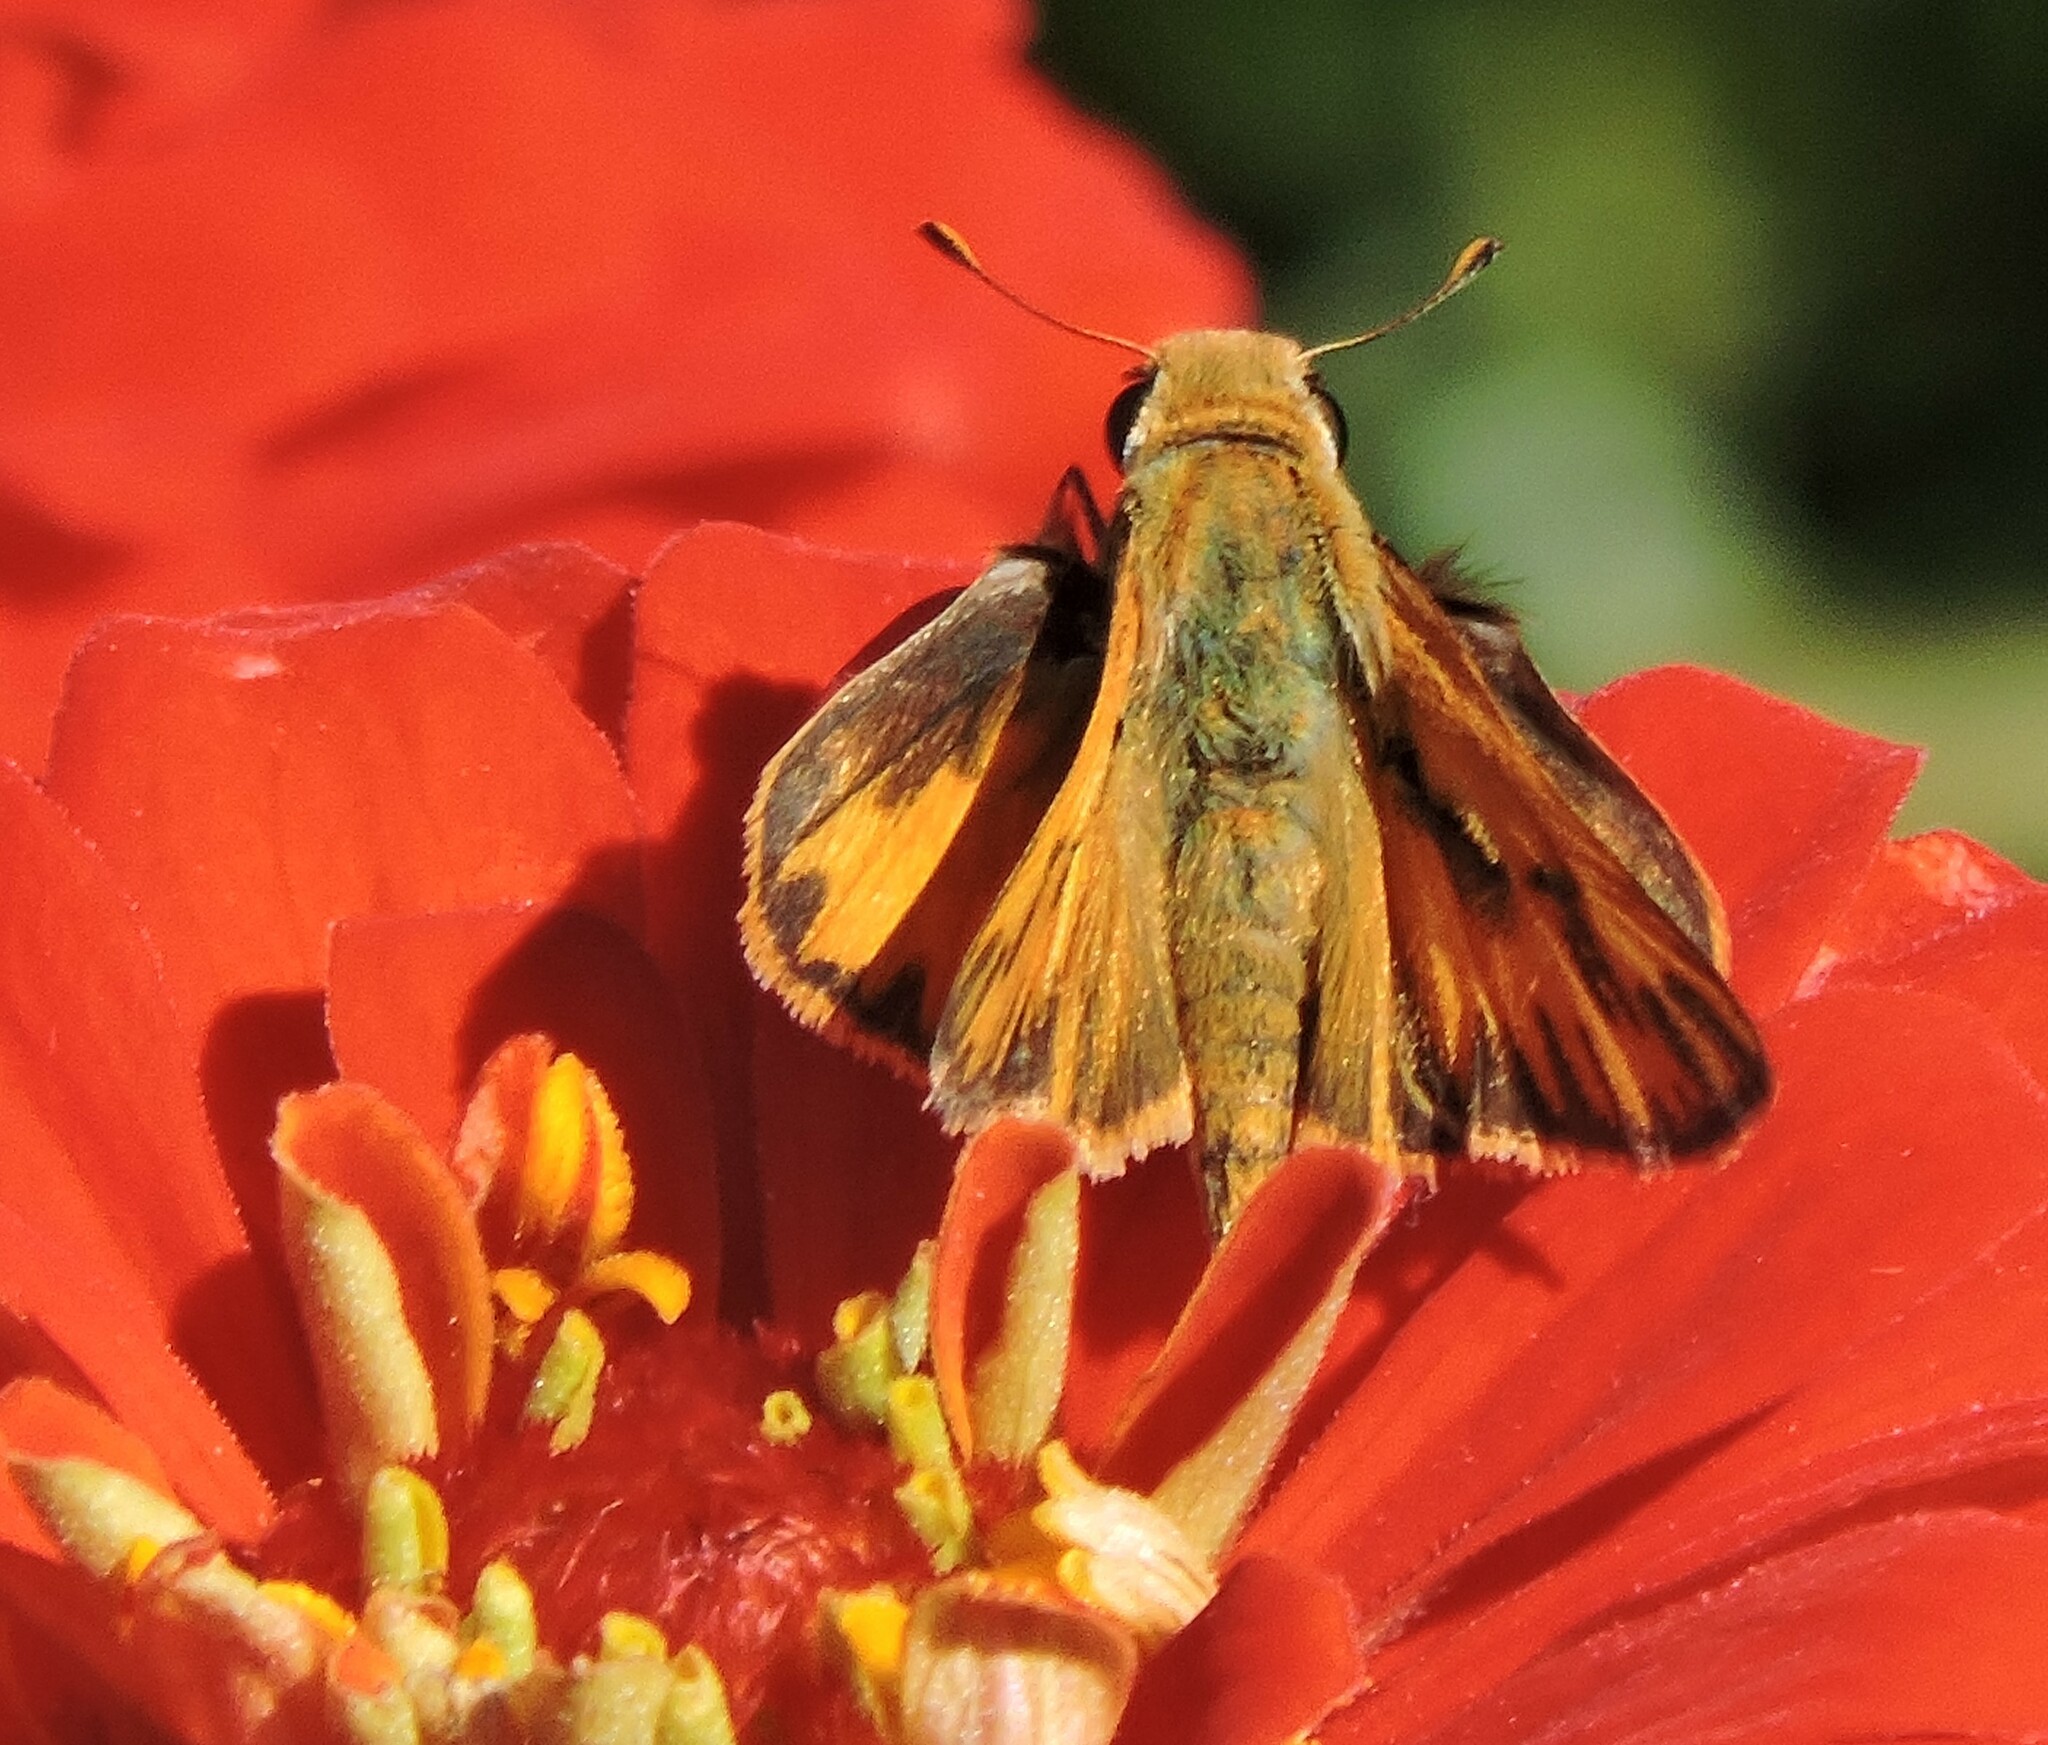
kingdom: Animalia
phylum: Arthropoda
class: Insecta
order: Lepidoptera
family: Hesperiidae
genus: Hylephila
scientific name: Hylephila phyleus
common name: Fiery skipper
